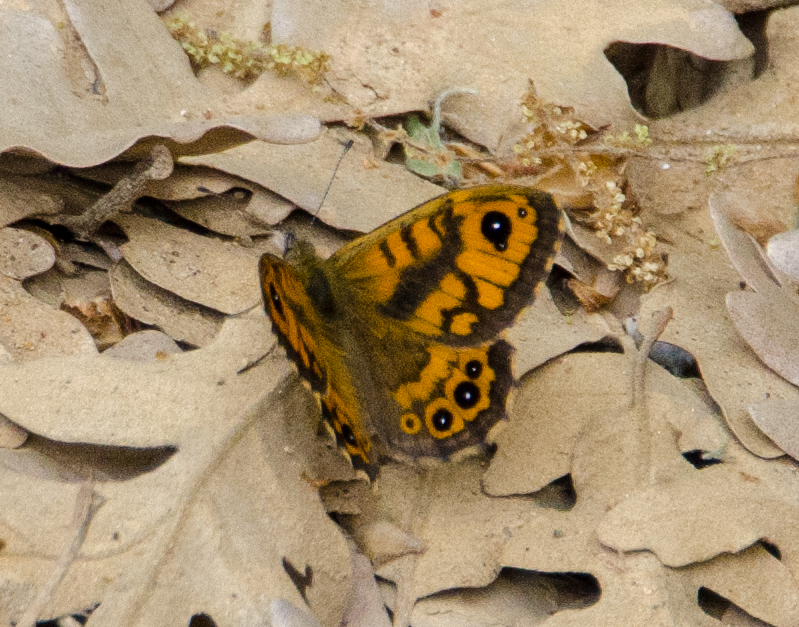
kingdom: Animalia
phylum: Arthropoda
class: Insecta
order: Lepidoptera
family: Nymphalidae
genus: Pararge
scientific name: Pararge Lasiommata megera
